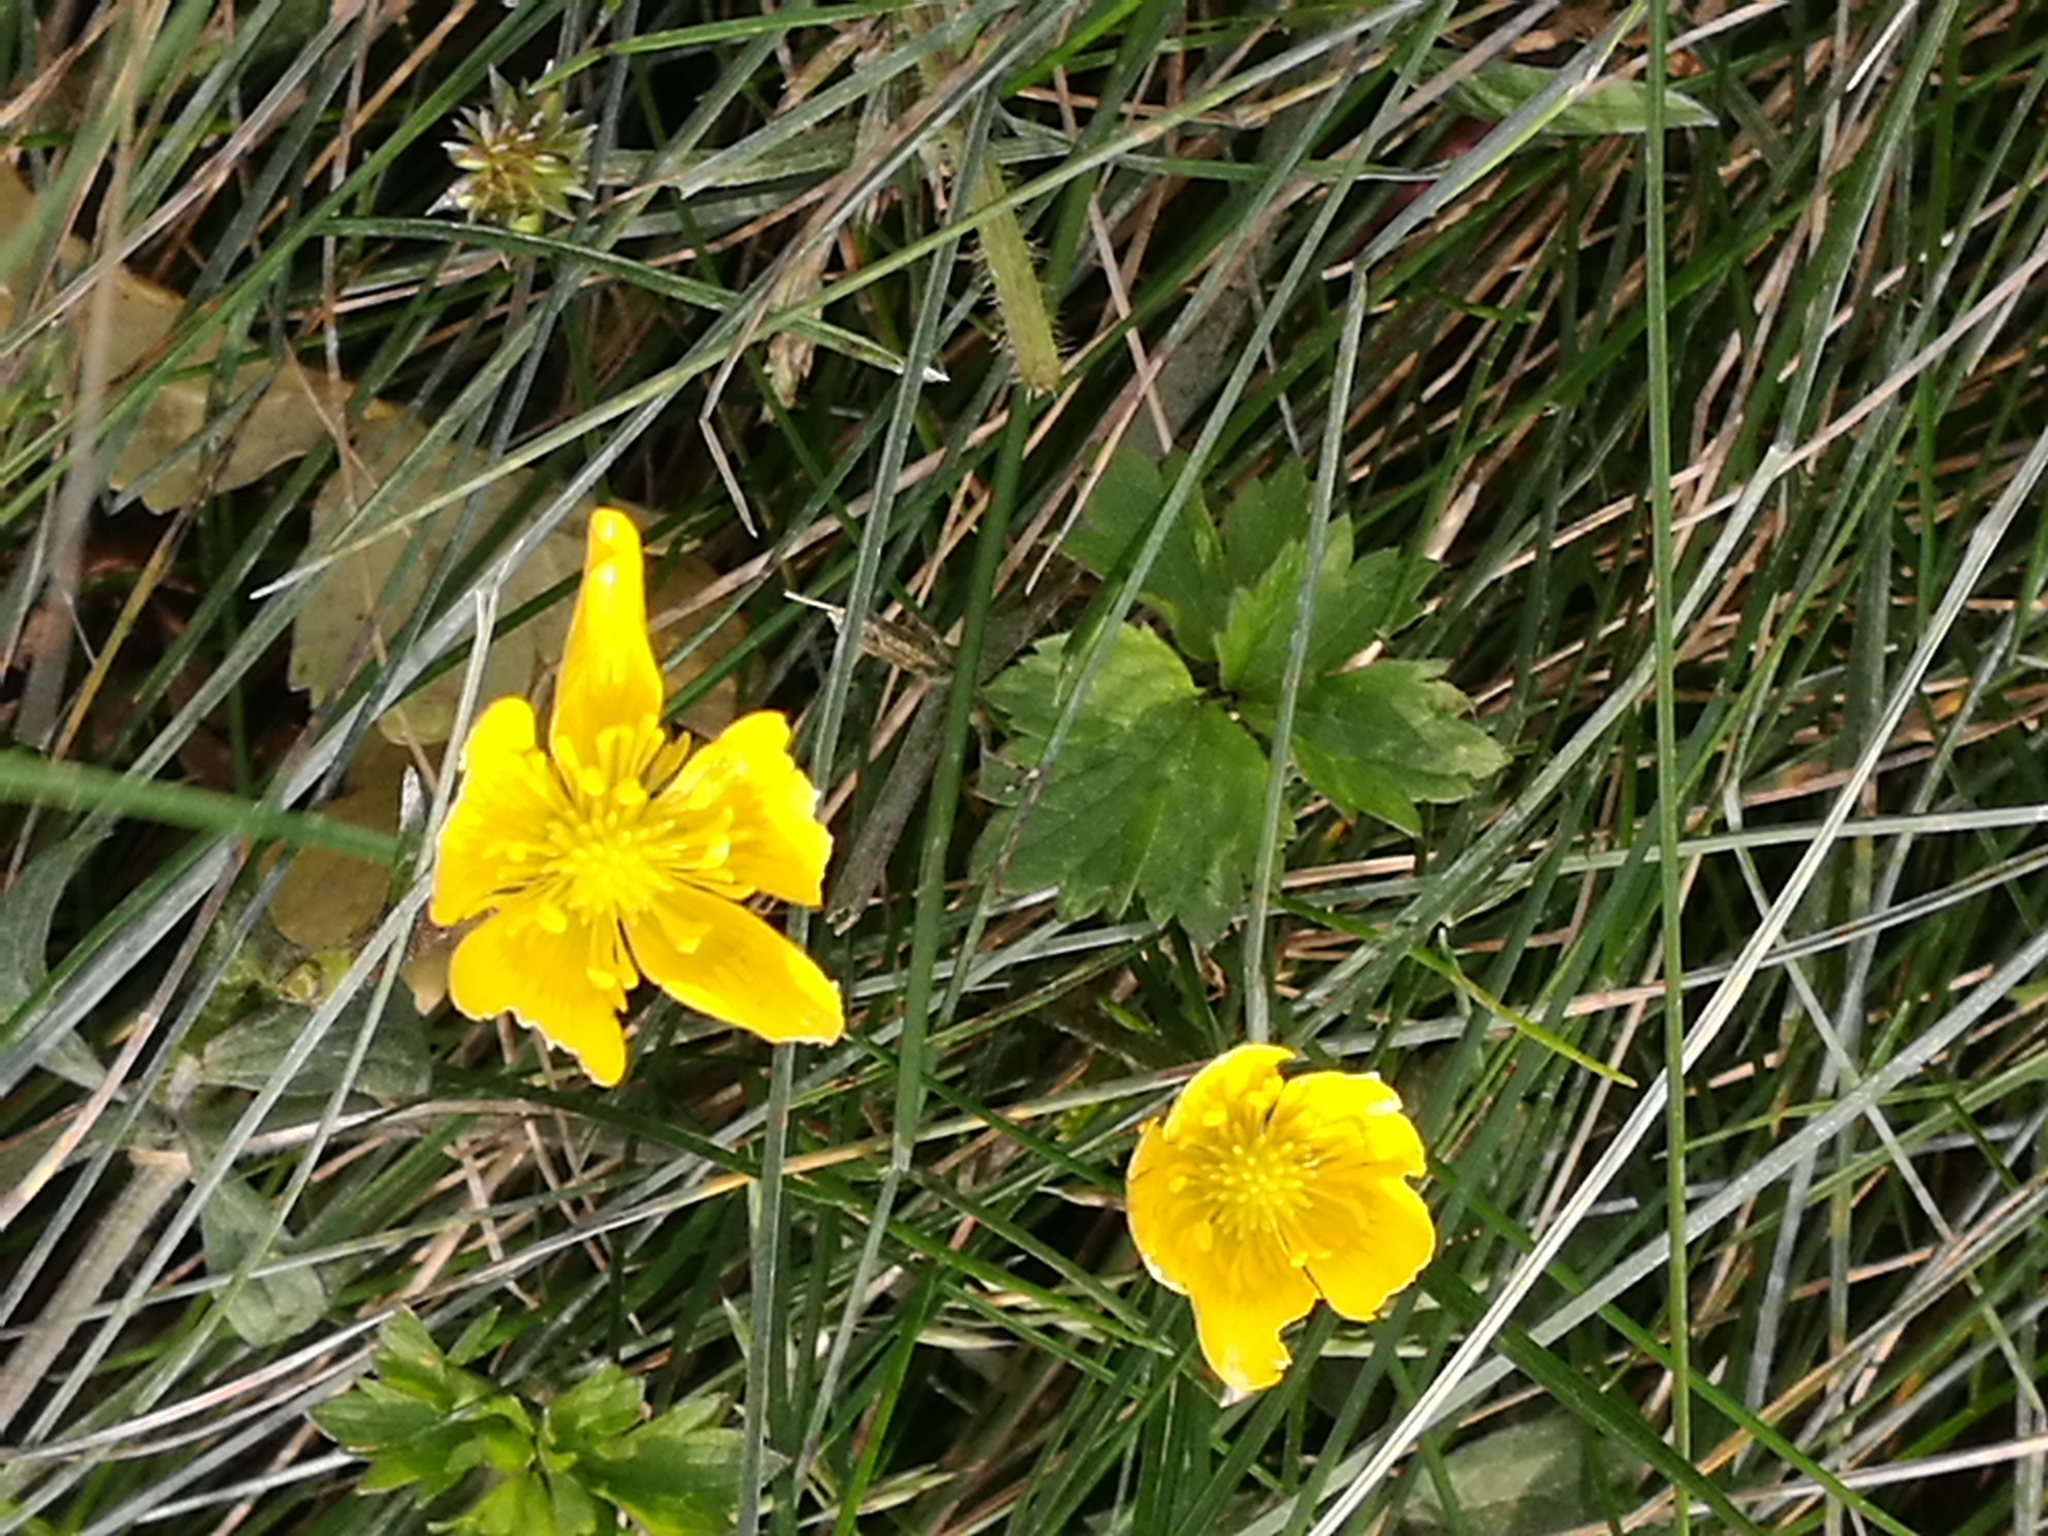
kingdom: Plantae
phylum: Tracheophyta
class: Magnoliopsida
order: Ranunculales
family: Ranunculaceae
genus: Ranunculus
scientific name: Ranunculus repens
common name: Creeping buttercup
